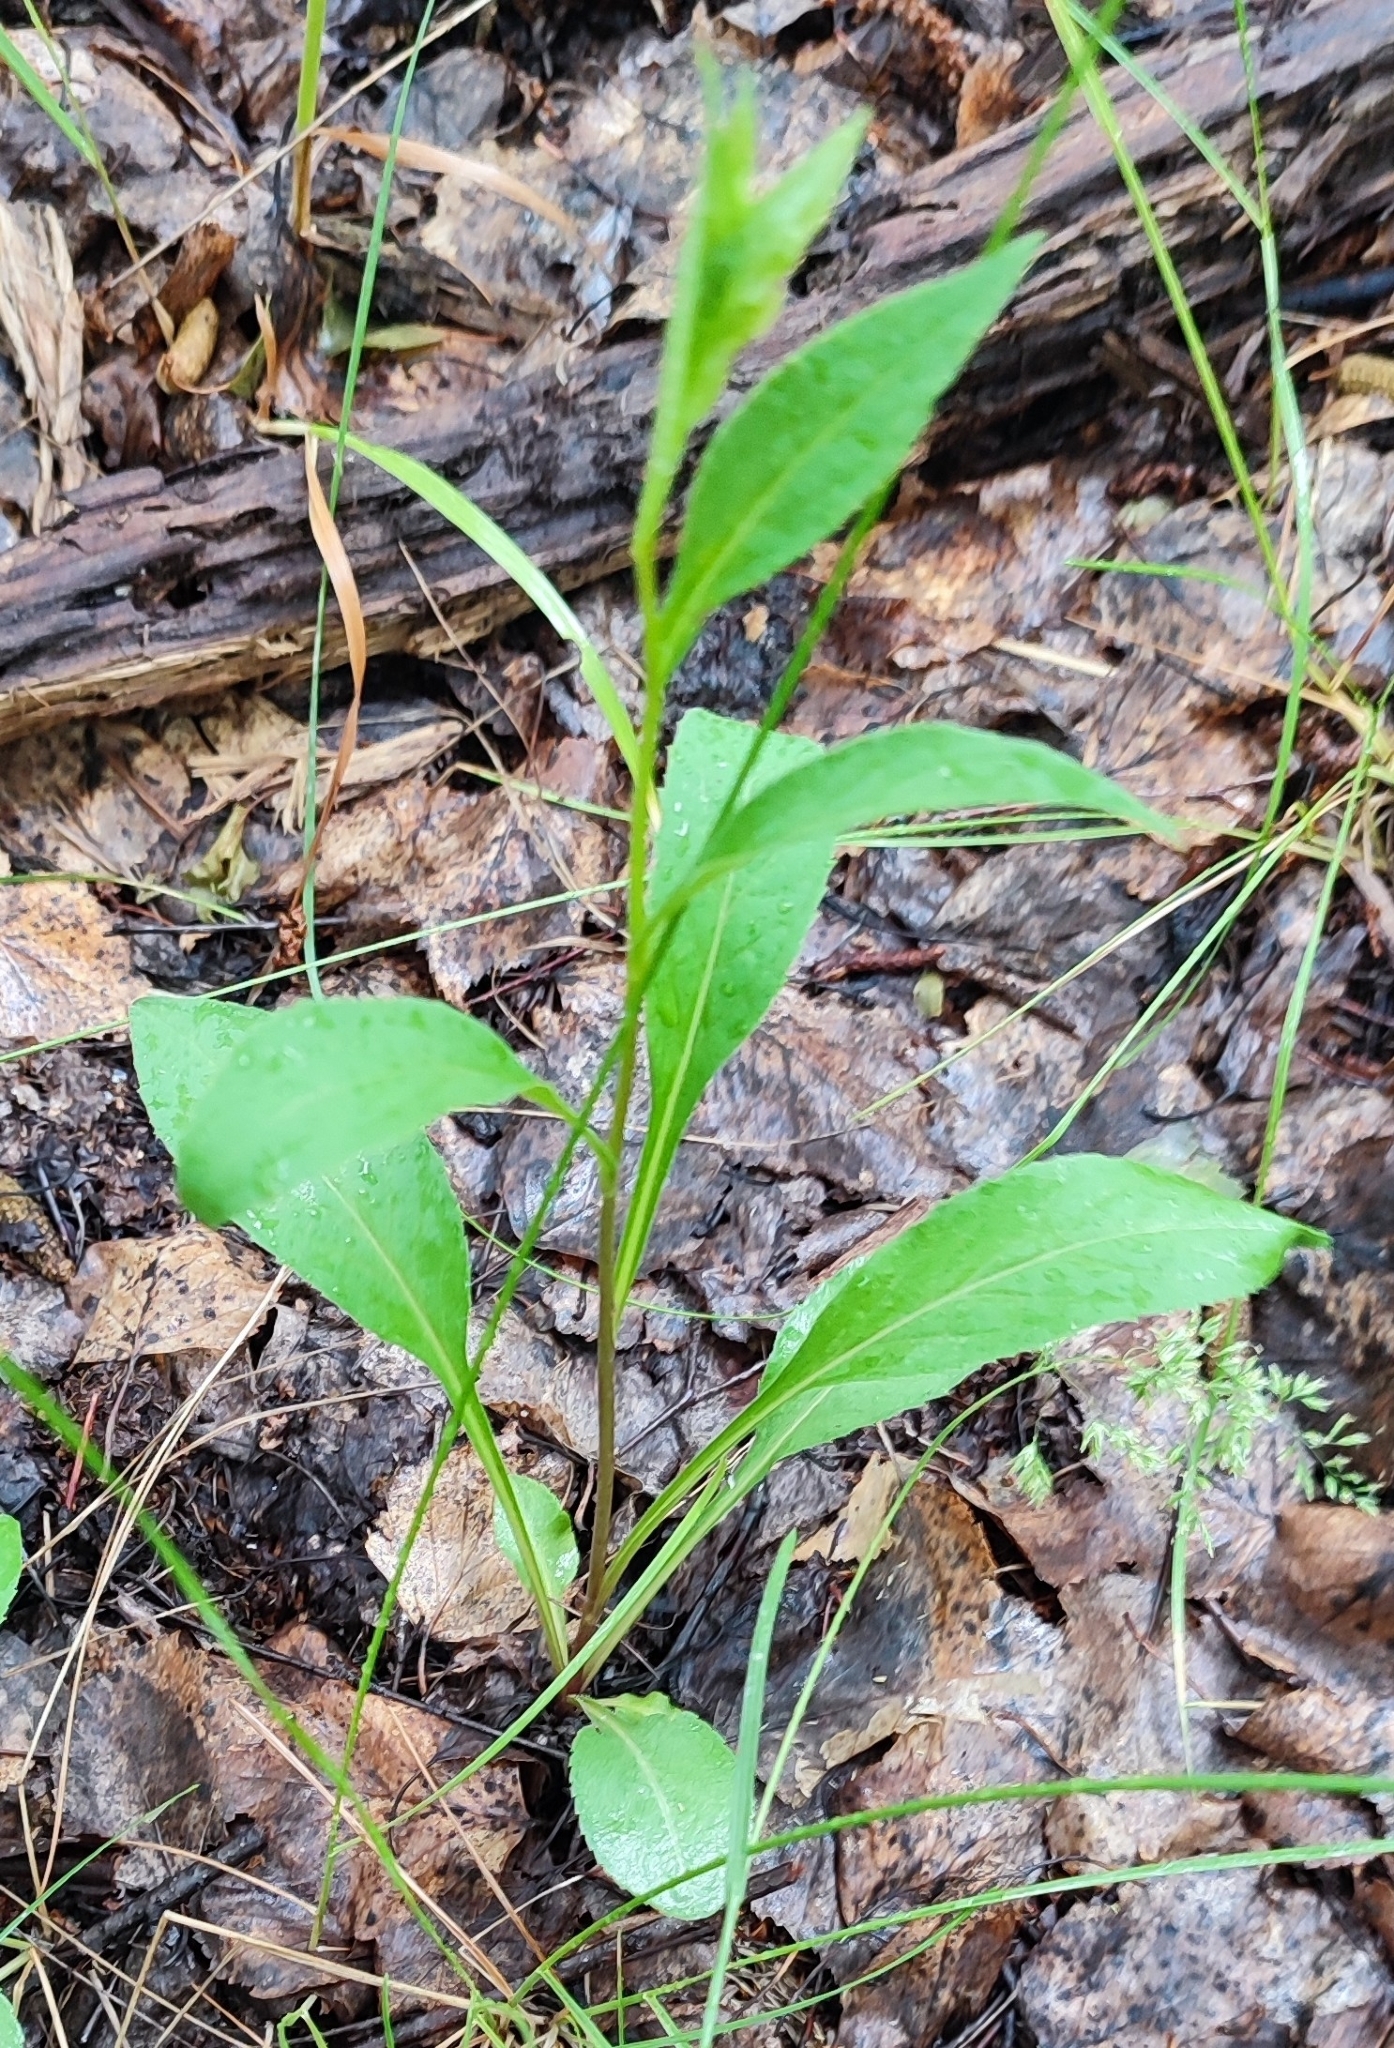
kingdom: Plantae
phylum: Tracheophyta
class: Magnoliopsida
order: Asterales
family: Asteraceae
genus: Solidago
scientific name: Solidago virgaurea
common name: Goldenrod
